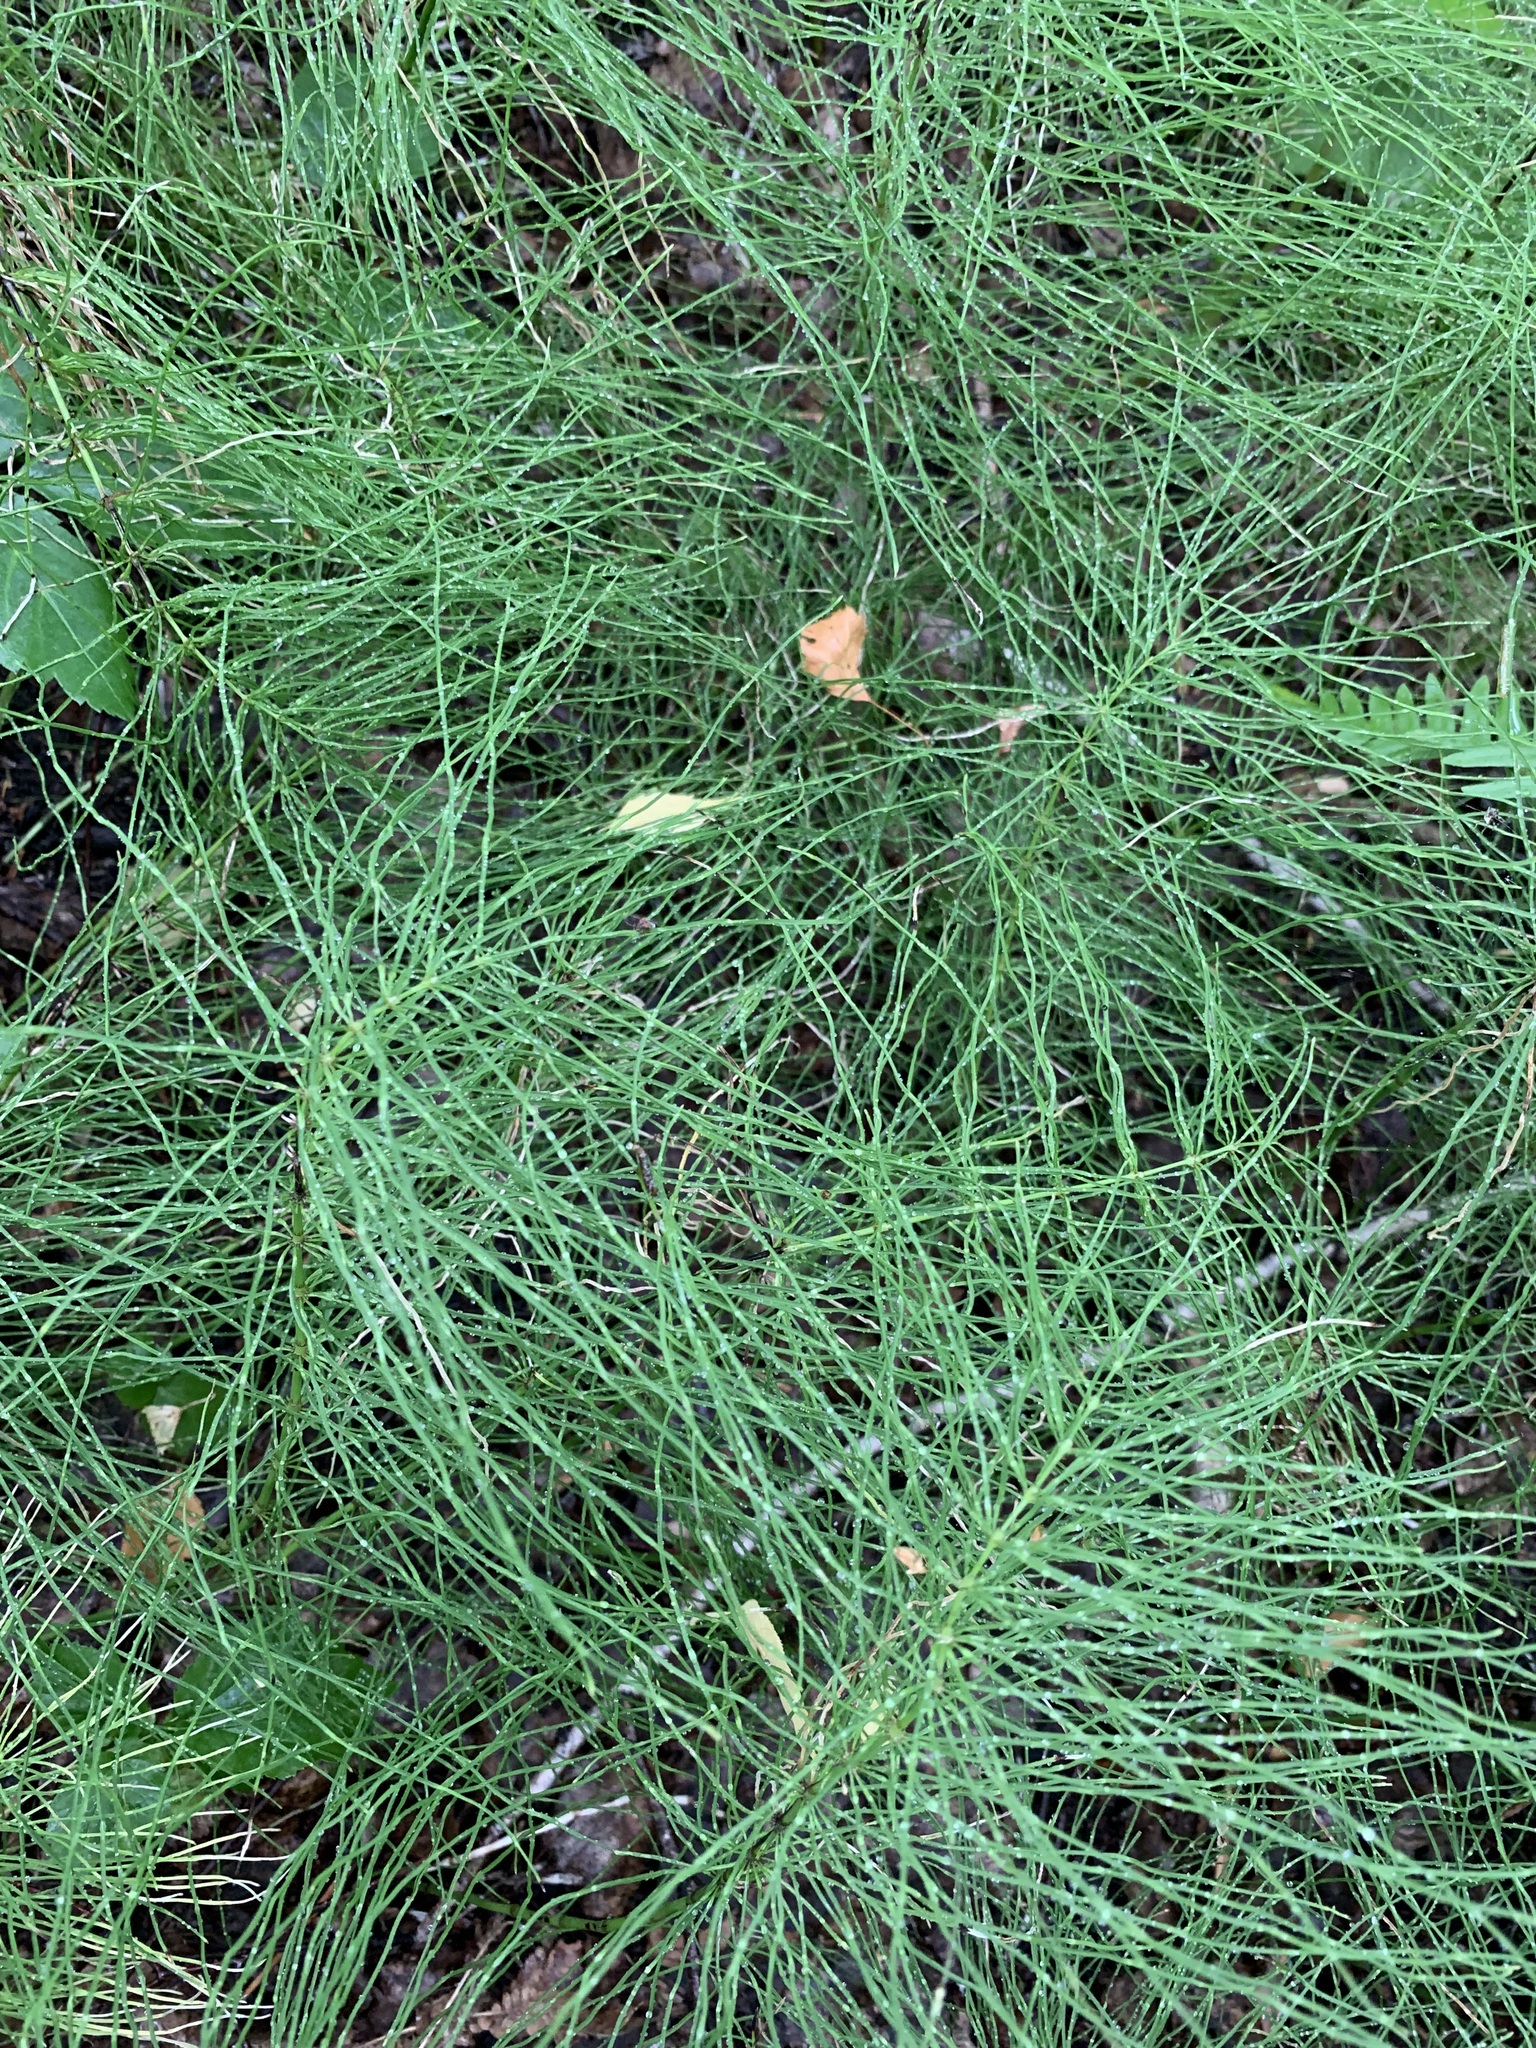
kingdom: Plantae
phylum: Tracheophyta
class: Polypodiopsida
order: Equisetales
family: Equisetaceae
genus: Equisetum
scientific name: Equisetum pratense
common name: Meadow horsetail
